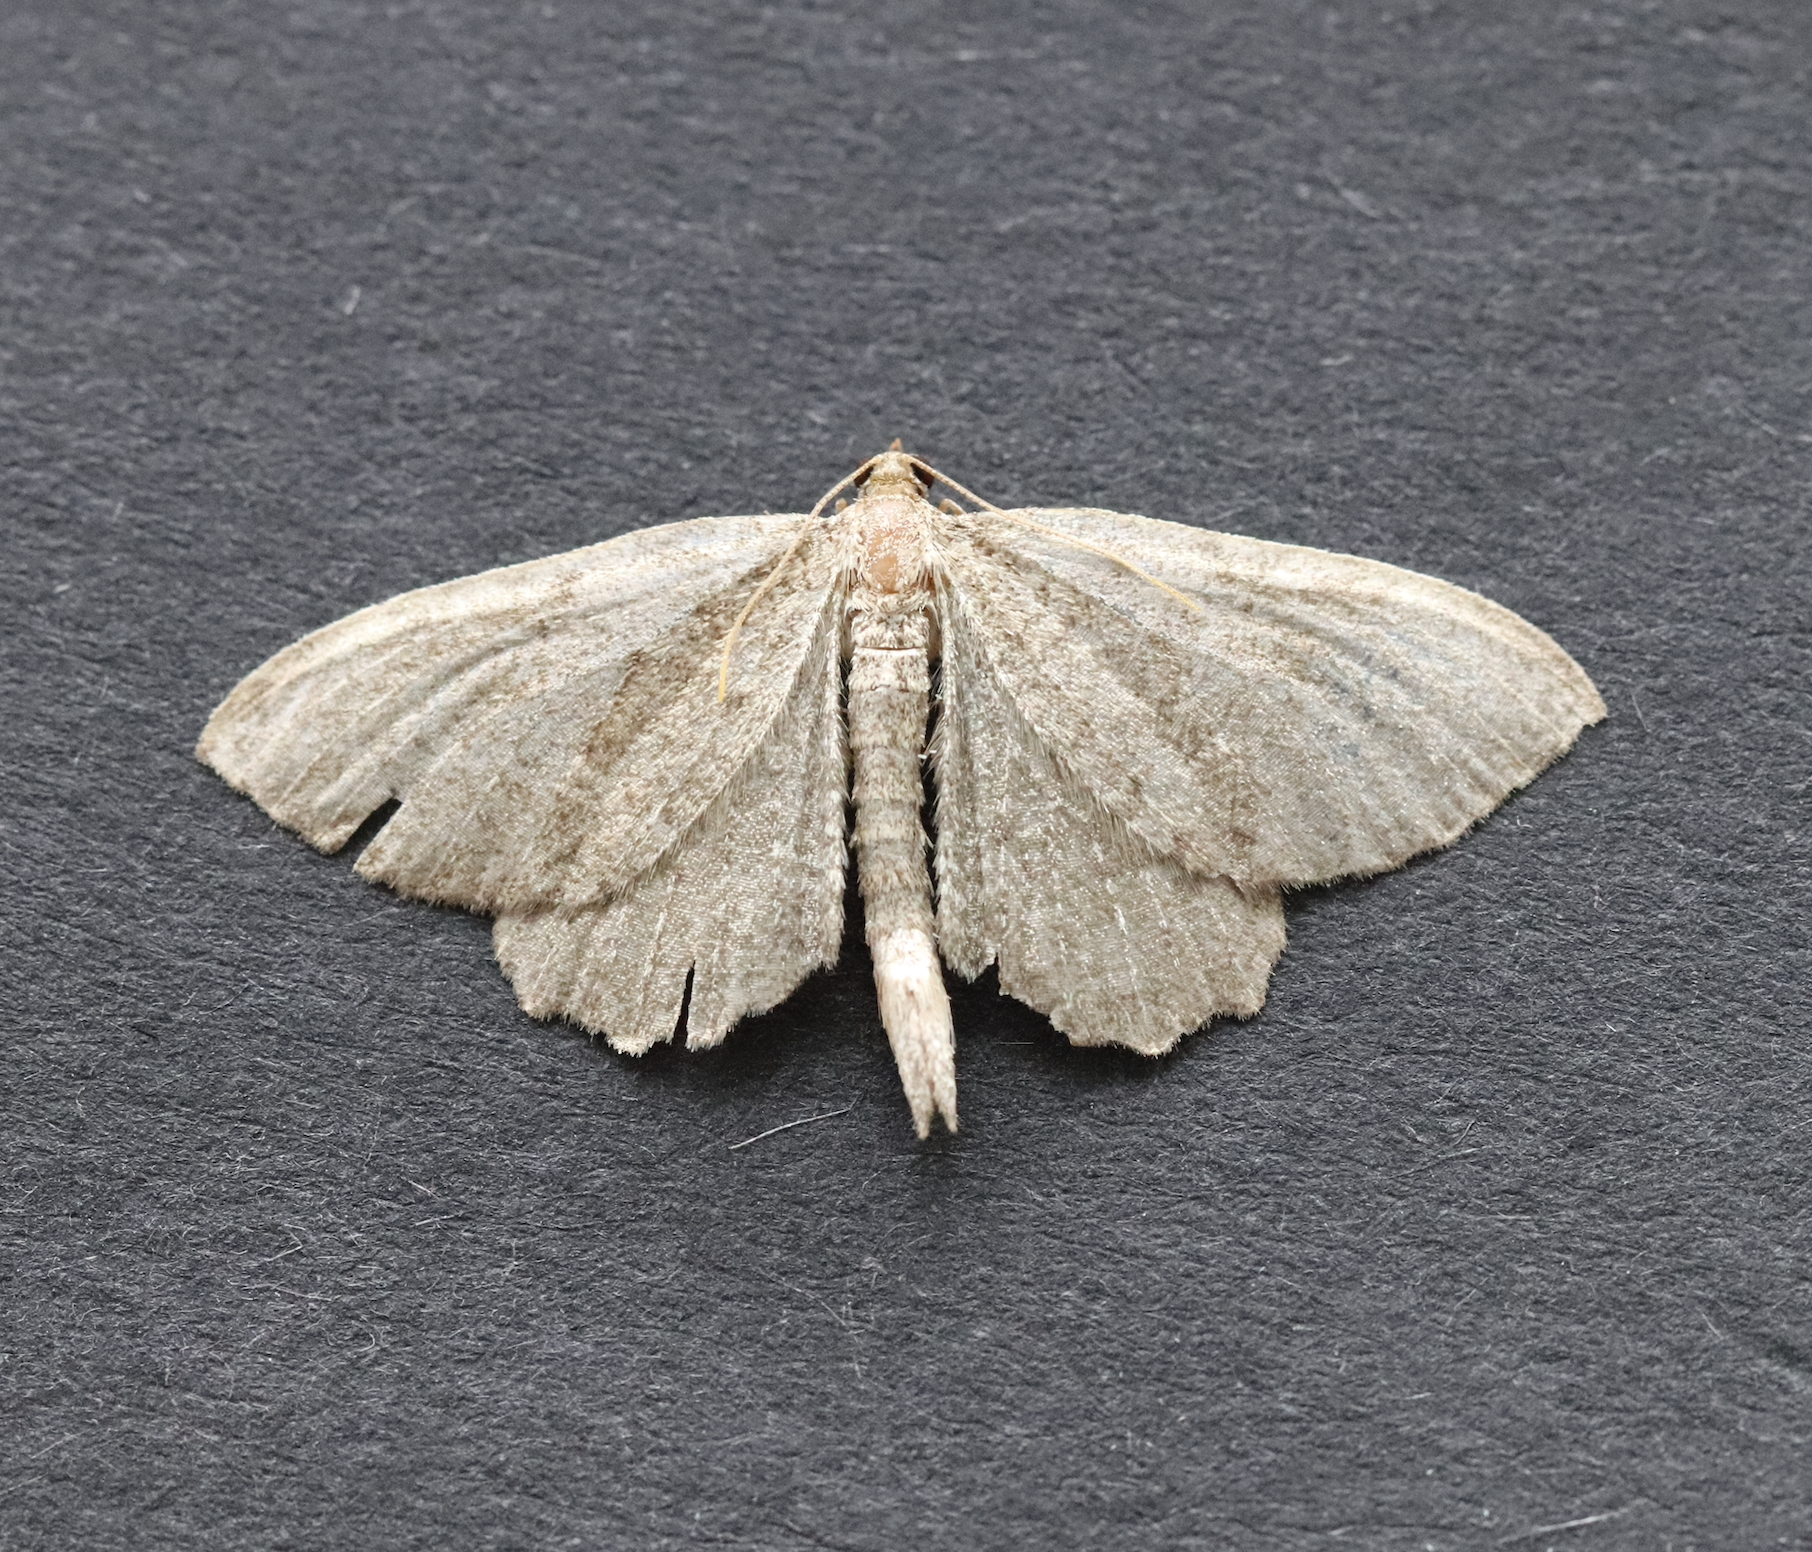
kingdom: Animalia
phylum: Arthropoda
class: Insecta
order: Lepidoptera
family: Geometridae
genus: Philereme
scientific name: Philereme vetulata
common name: Brown scallop
